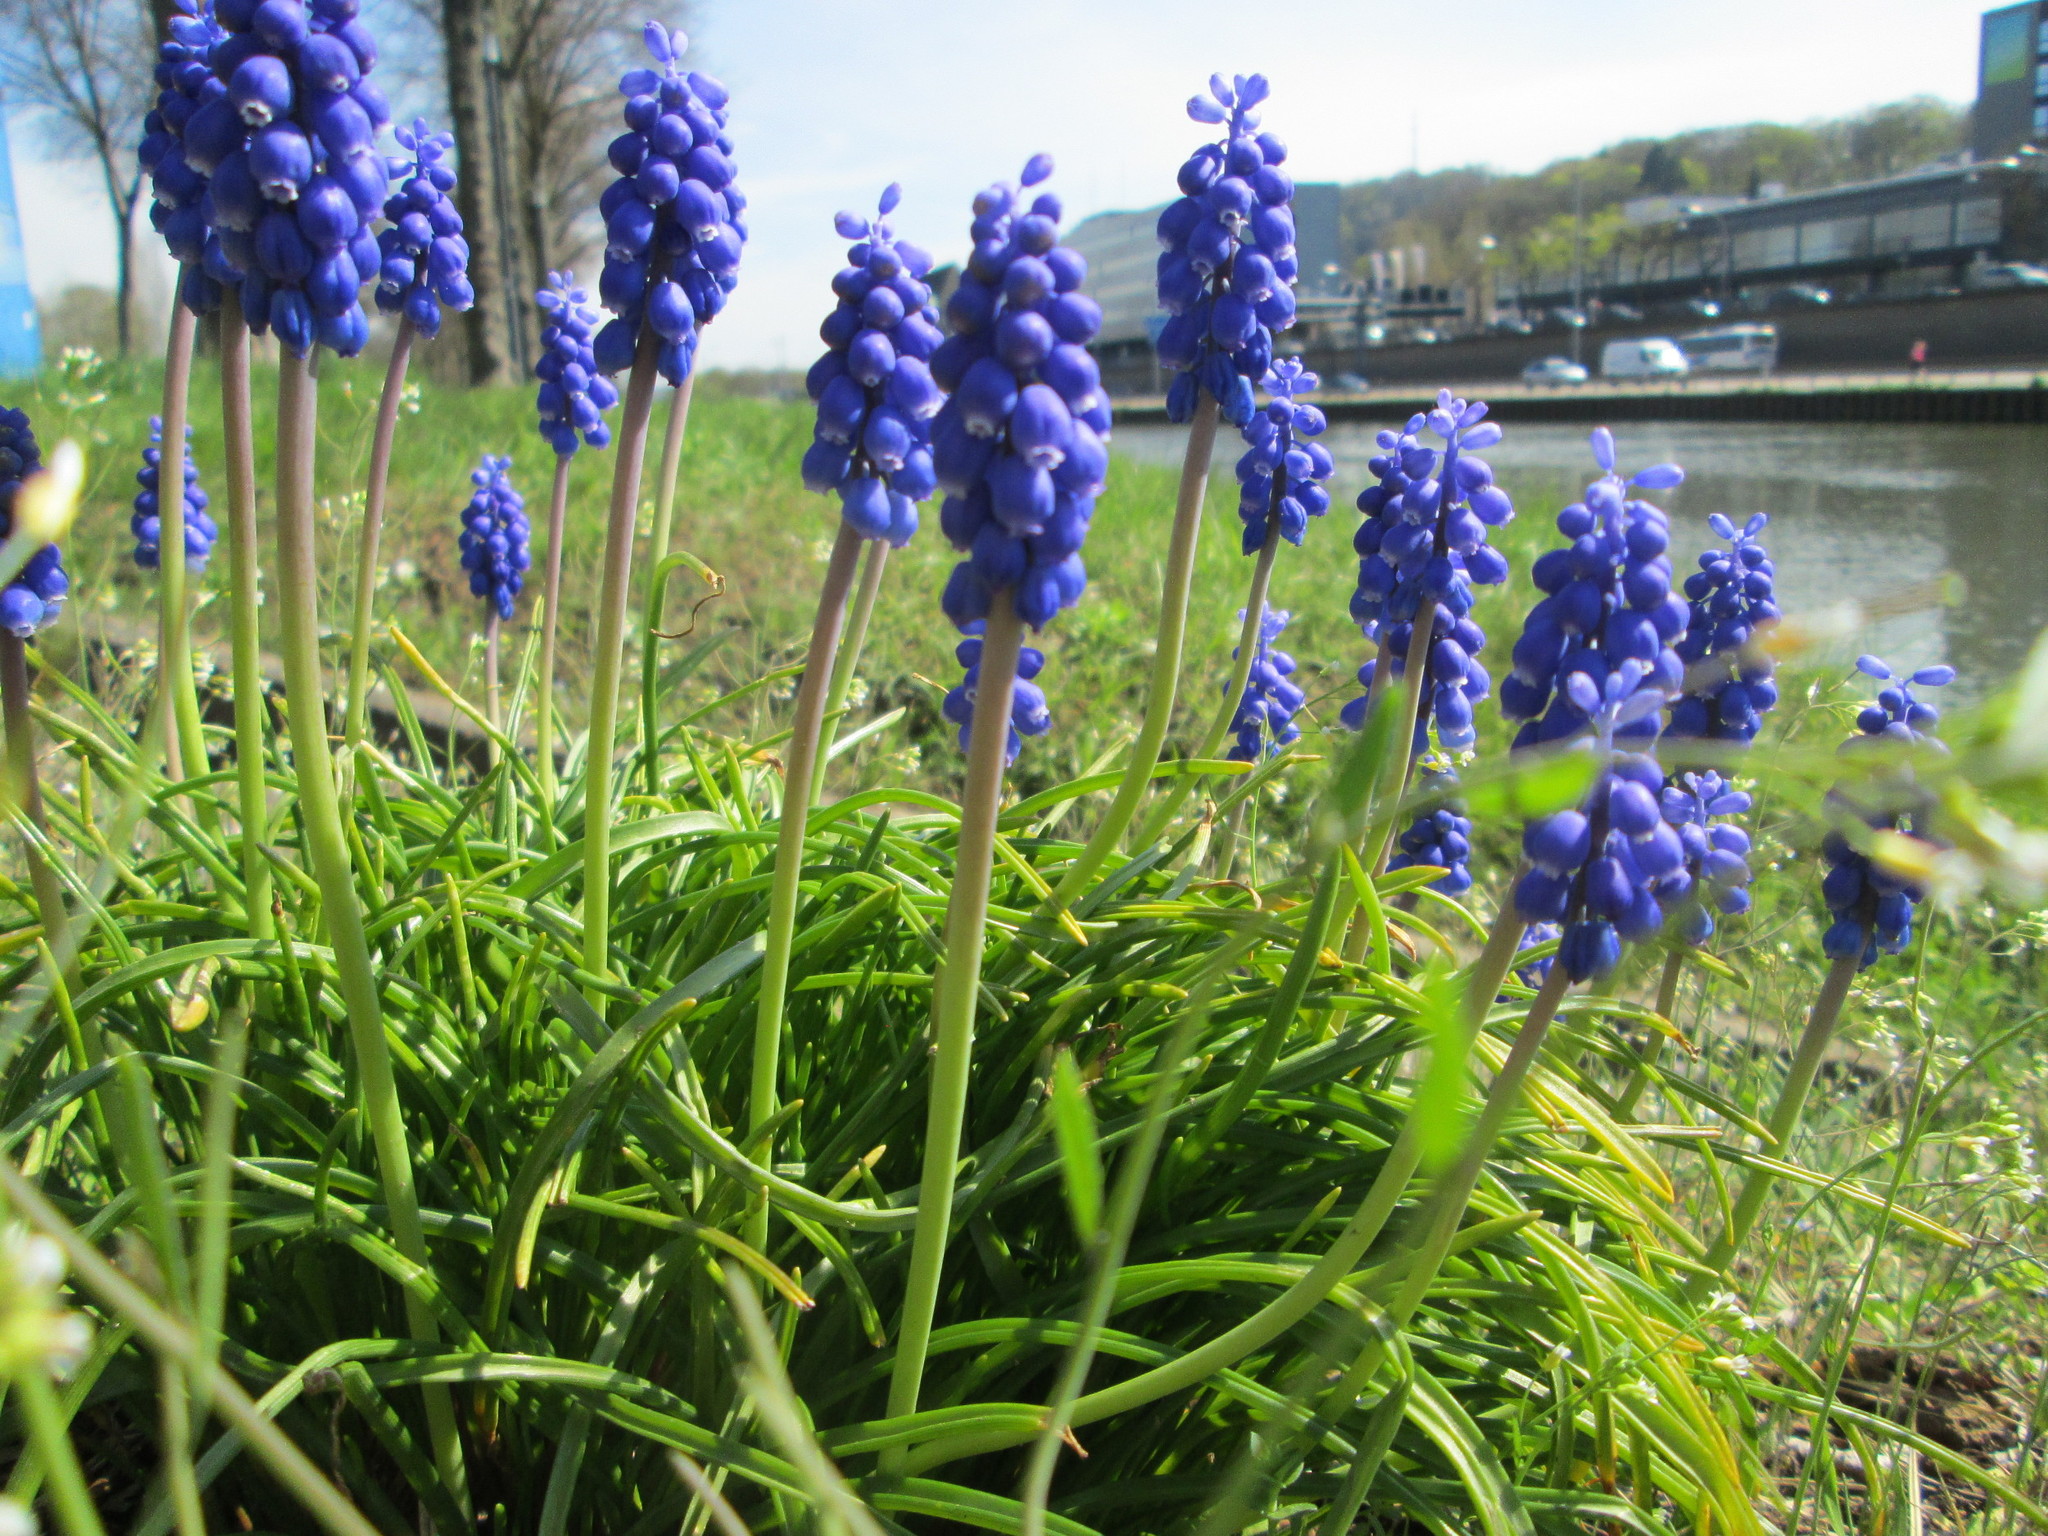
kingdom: Plantae
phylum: Tracheophyta
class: Liliopsida
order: Asparagales
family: Asparagaceae
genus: Muscari
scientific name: Muscari armeniacum
